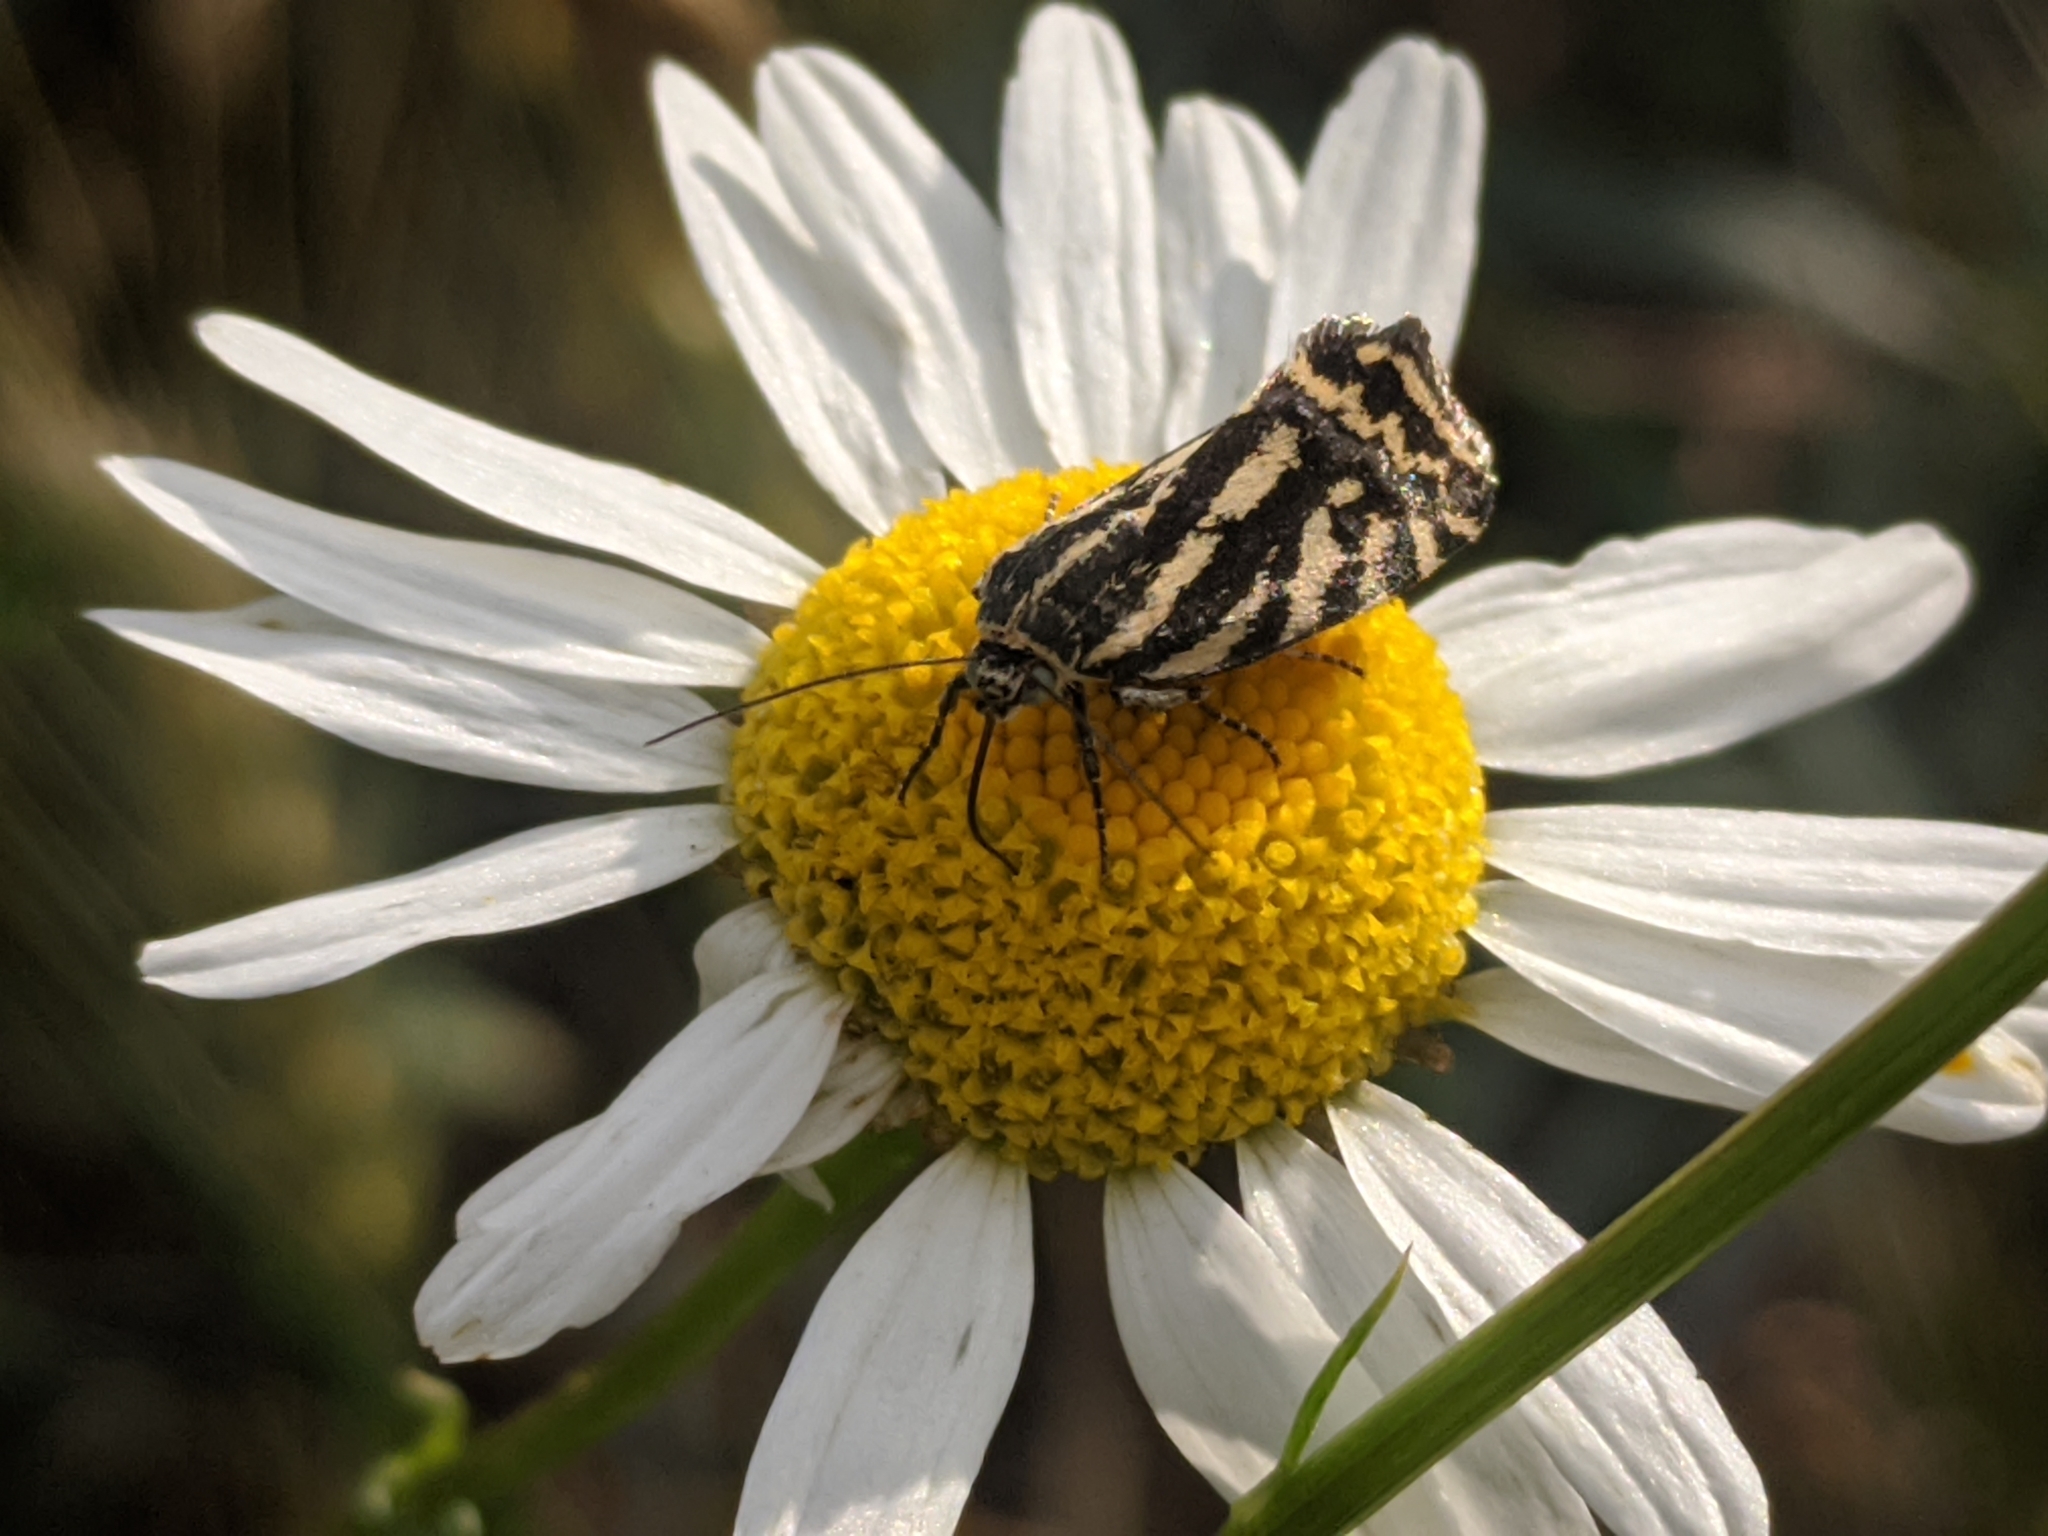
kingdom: Animalia
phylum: Arthropoda
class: Insecta
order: Lepidoptera
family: Noctuidae
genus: Acontia
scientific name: Acontia trabealis
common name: Spotted sulphur
